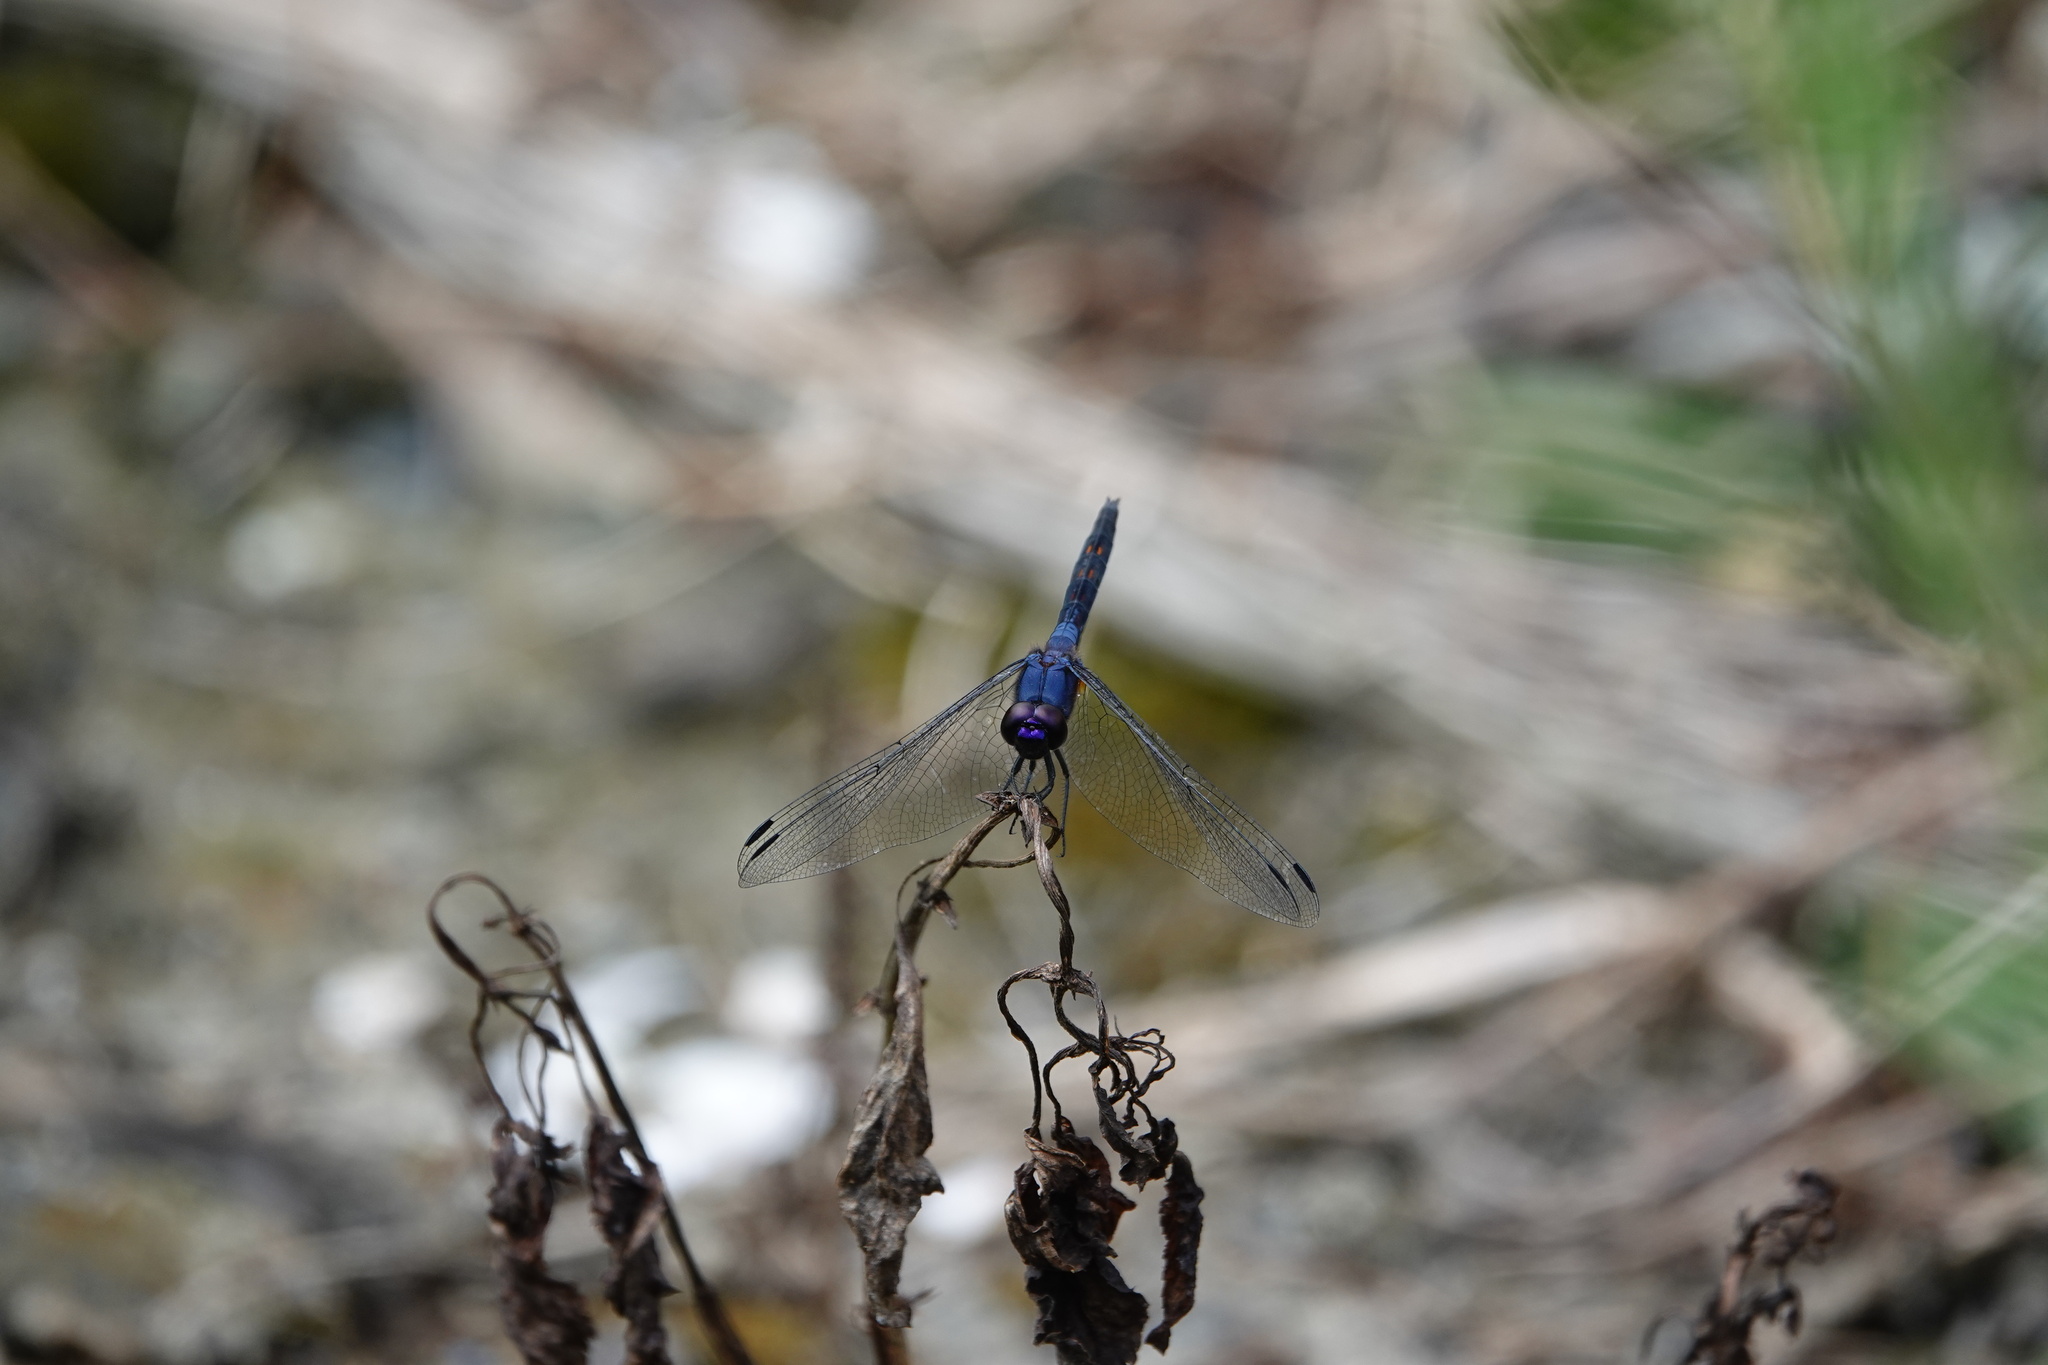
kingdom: Animalia
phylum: Arthropoda
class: Insecta
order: Odonata
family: Libellulidae
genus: Trithemis
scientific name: Trithemis festiva
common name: Indigo dropwing
